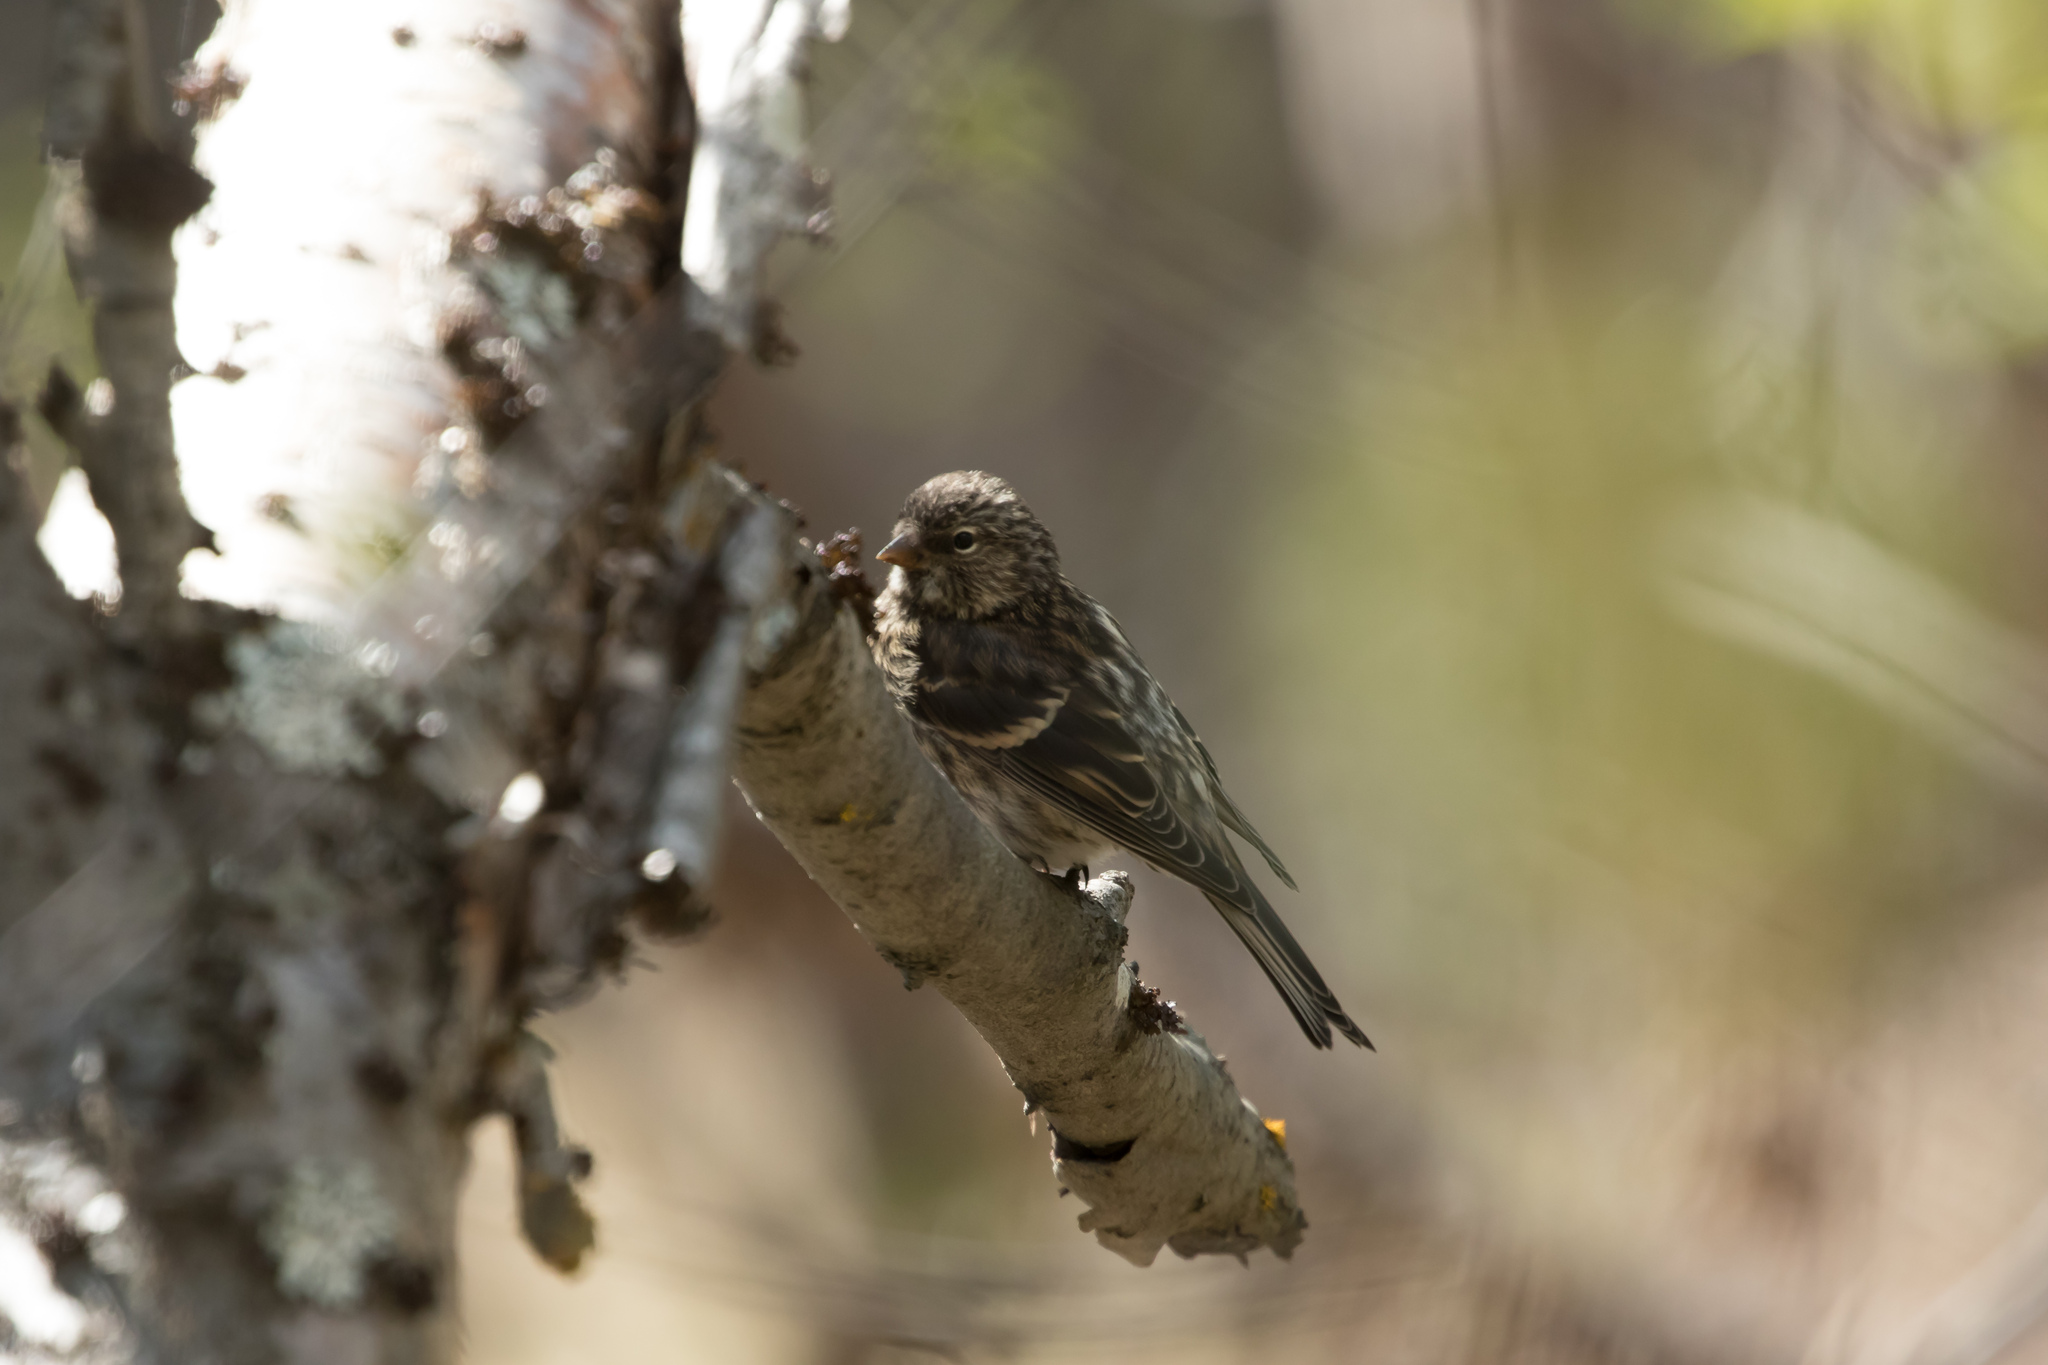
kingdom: Animalia
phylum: Chordata
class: Aves
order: Passeriformes
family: Fringillidae
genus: Acanthis
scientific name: Acanthis flammea
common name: Common redpoll
